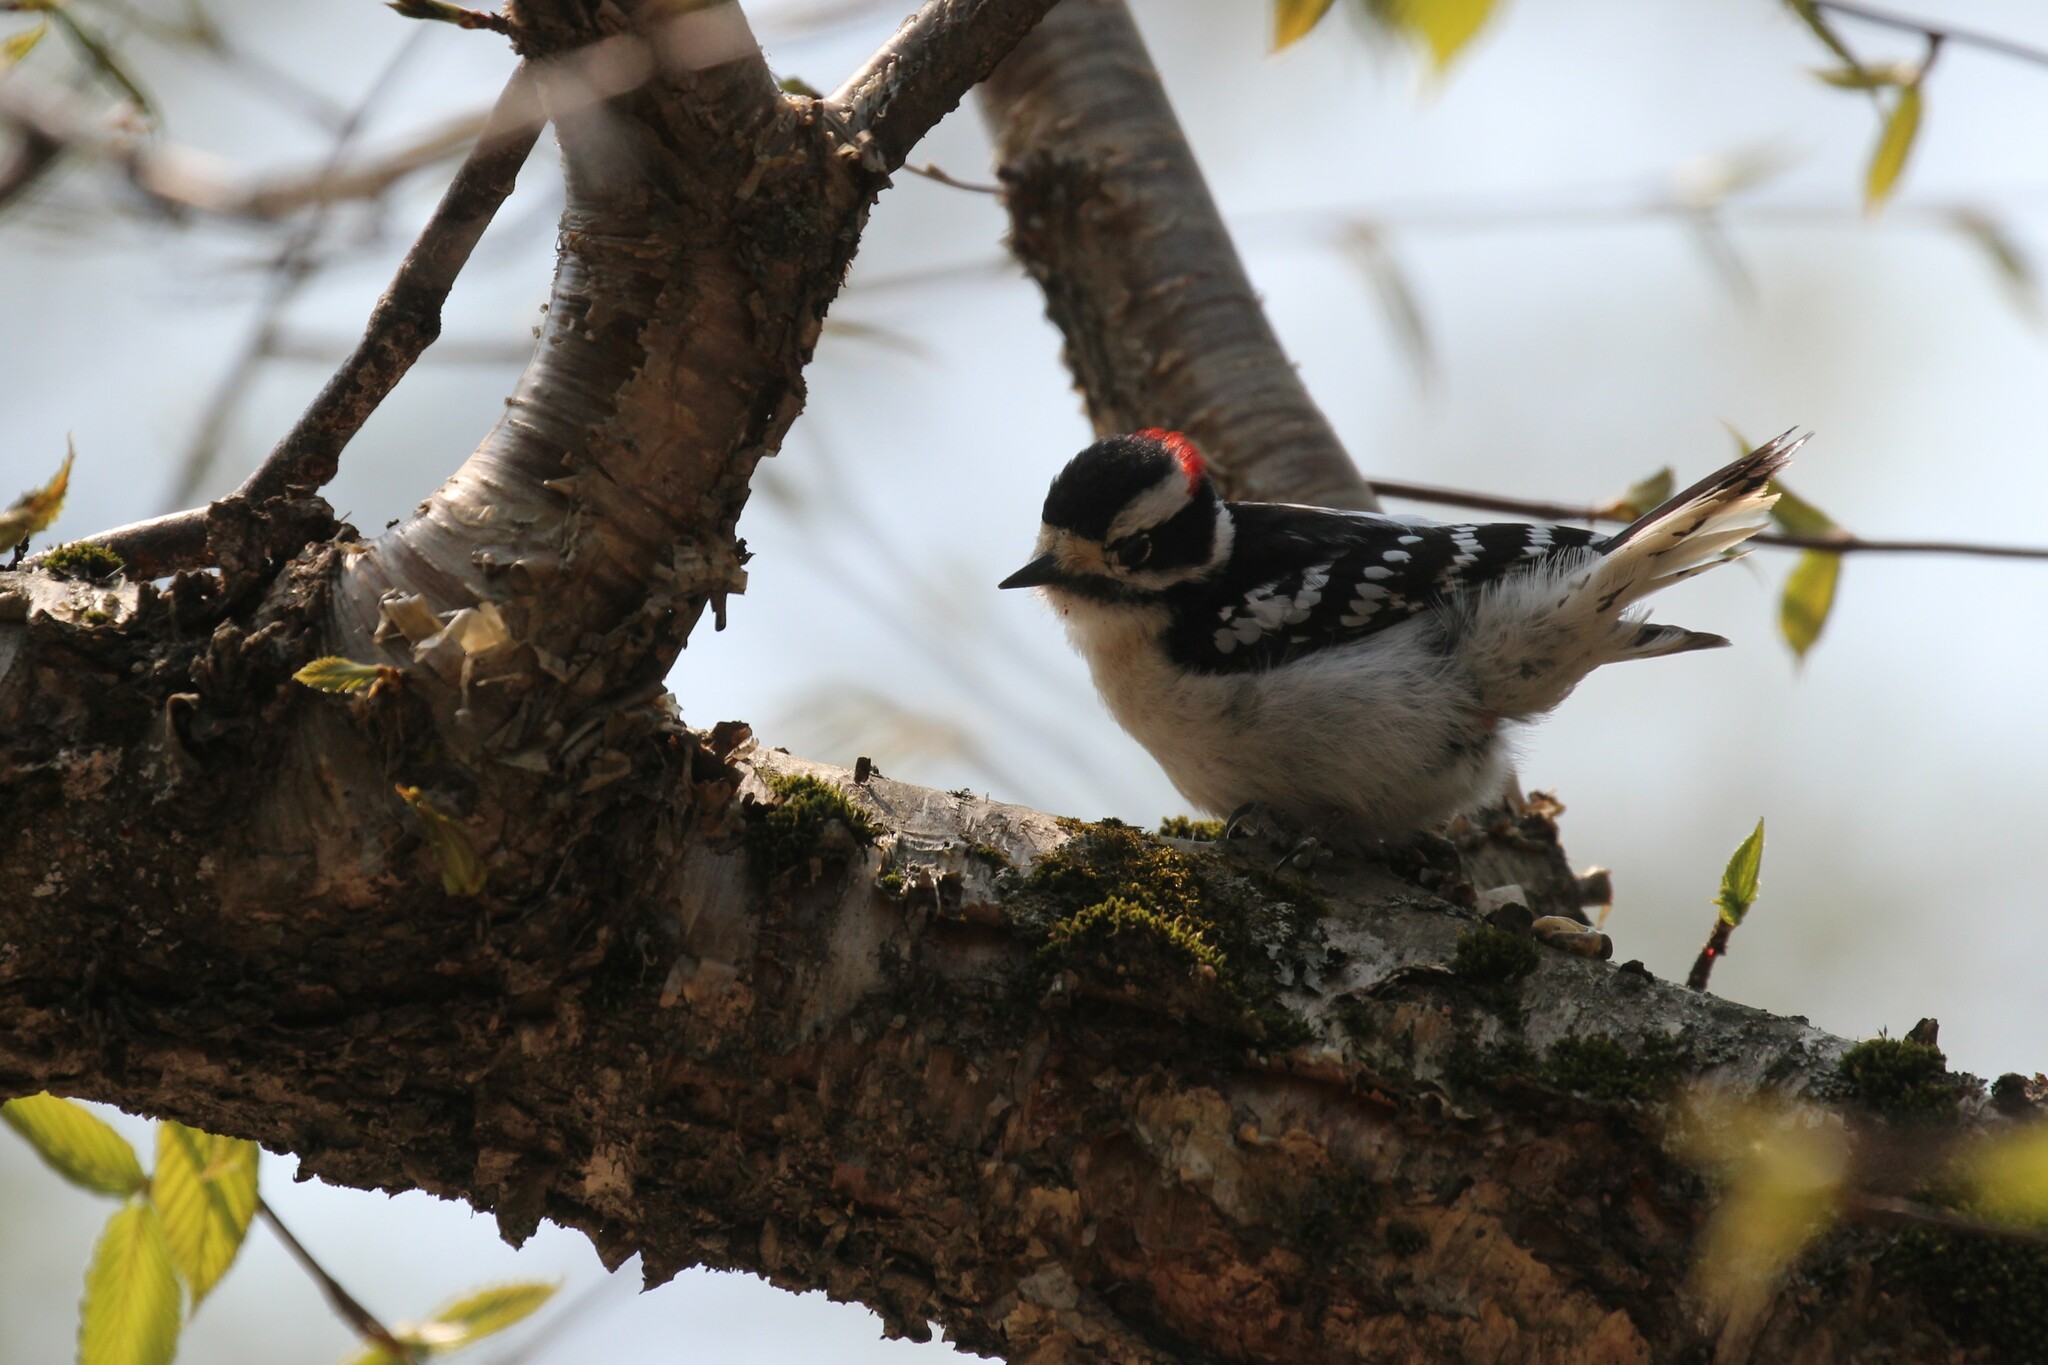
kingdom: Animalia
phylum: Chordata
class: Aves
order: Piciformes
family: Picidae
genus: Dryobates
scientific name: Dryobates pubescens
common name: Downy woodpecker
